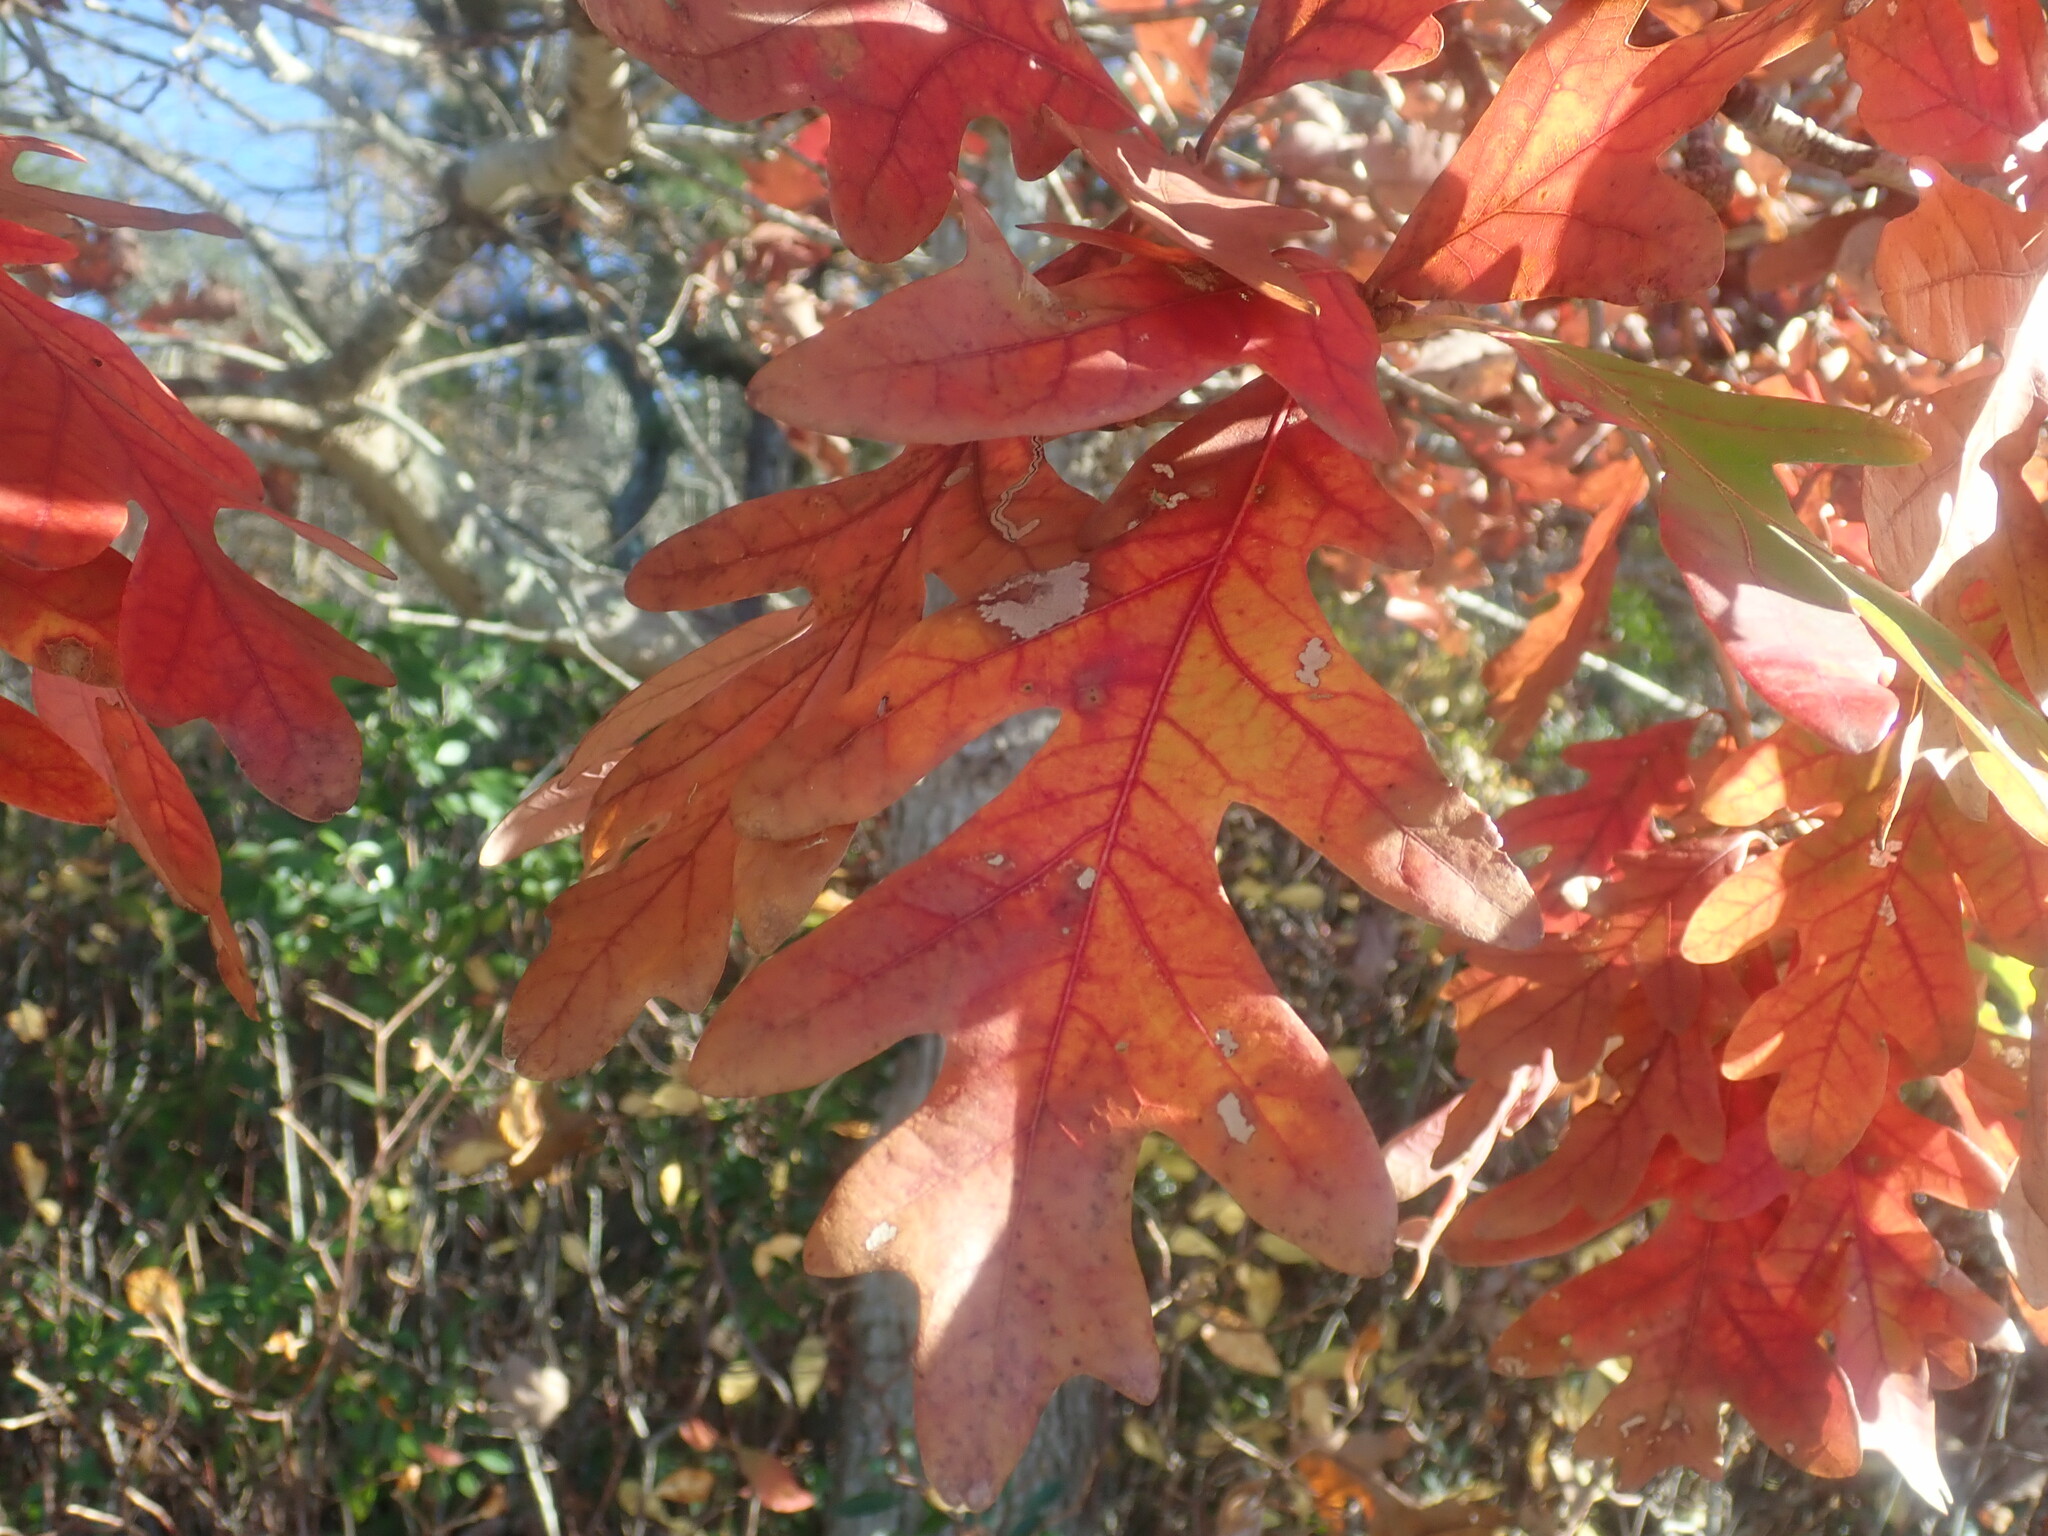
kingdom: Plantae
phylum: Tracheophyta
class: Magnoliopsida
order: Fagales
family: Fagaceae
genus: Quercus
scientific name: Quercus alba
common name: White oak
